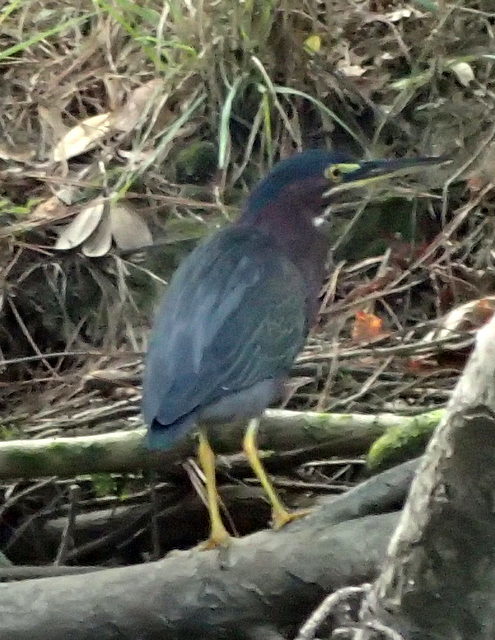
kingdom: Animalia
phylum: Chordata
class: Aves
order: Pelecaniformes
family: Ardeidae
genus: Butorides
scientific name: Butorides virescens
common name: Green heron
